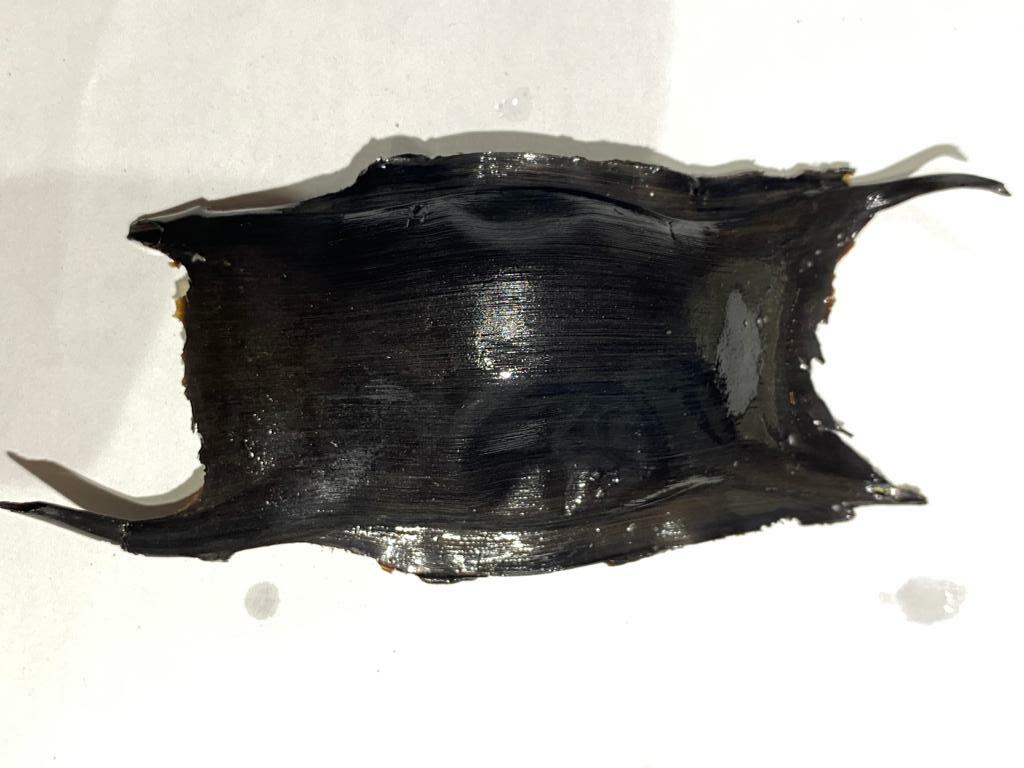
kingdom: Animalia
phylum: Chordata
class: Elasmobranchii
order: Rajiformes
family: Rajidae
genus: Raja
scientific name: Raja clavata
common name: Thornback ray
